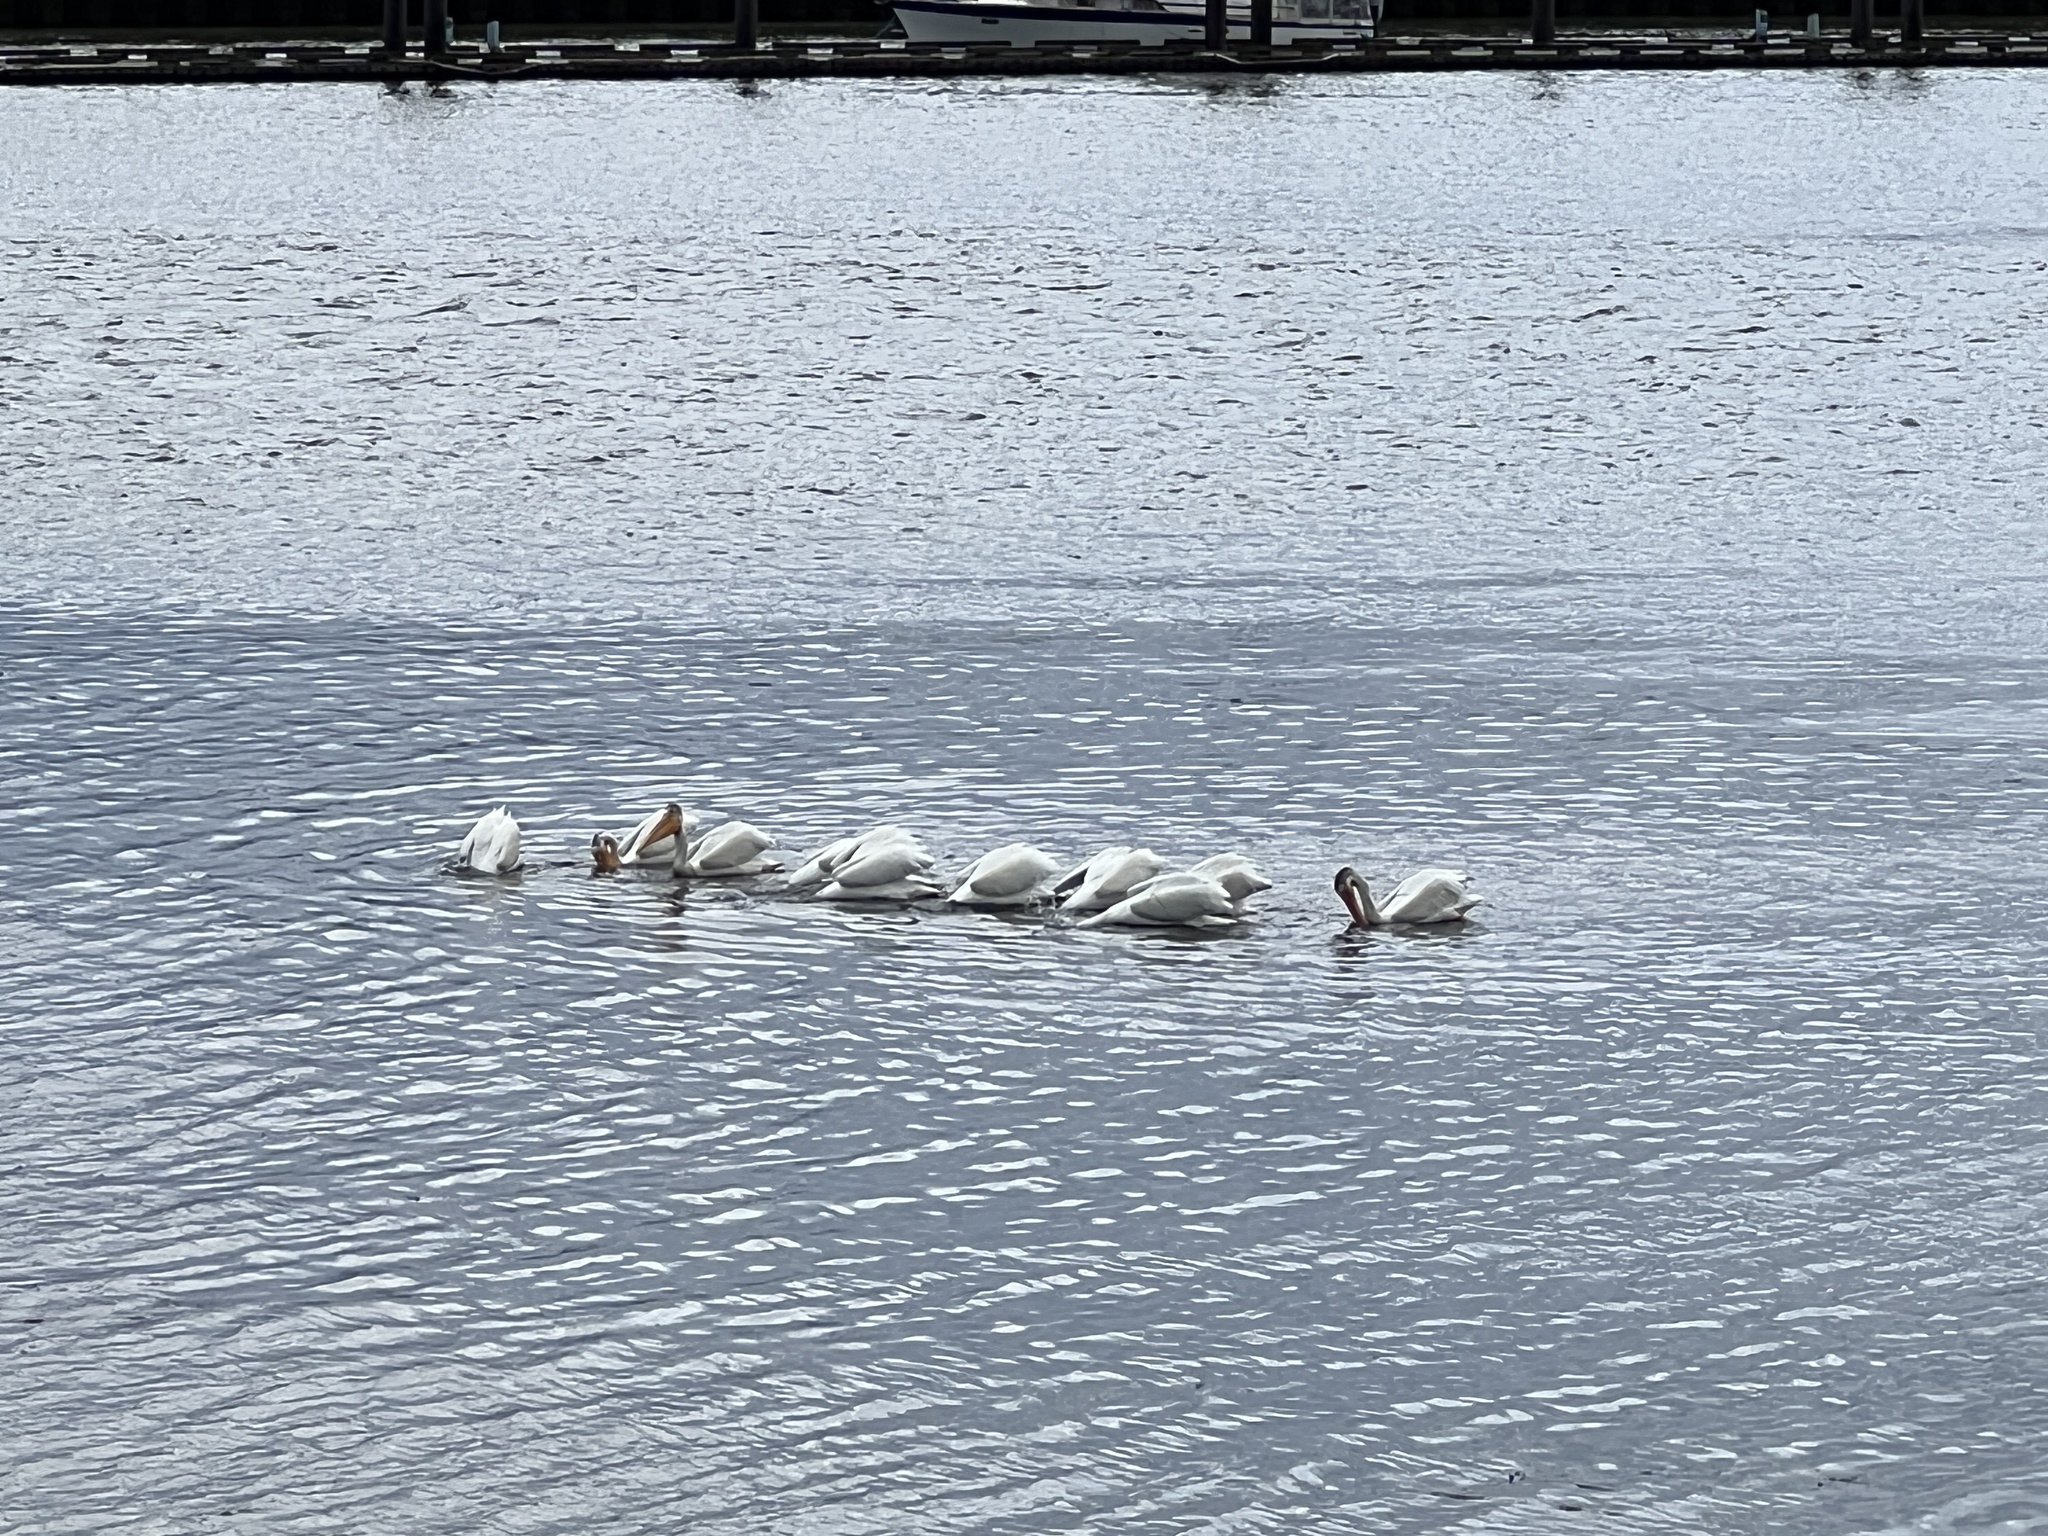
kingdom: Animalia
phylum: Chordata
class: Aves
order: Pelecaniformes
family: Pelecanidae
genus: Pelecanus
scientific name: Pelecanus erythrorhynchos
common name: American white pelican
